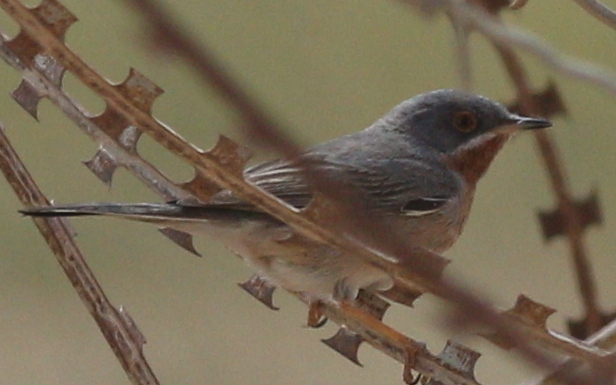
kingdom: Animalia
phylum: Chordata
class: Aves
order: Passeriformes
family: Sylviidae
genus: Curruca
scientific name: Curruca cantillans
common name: Subalpine warbler
